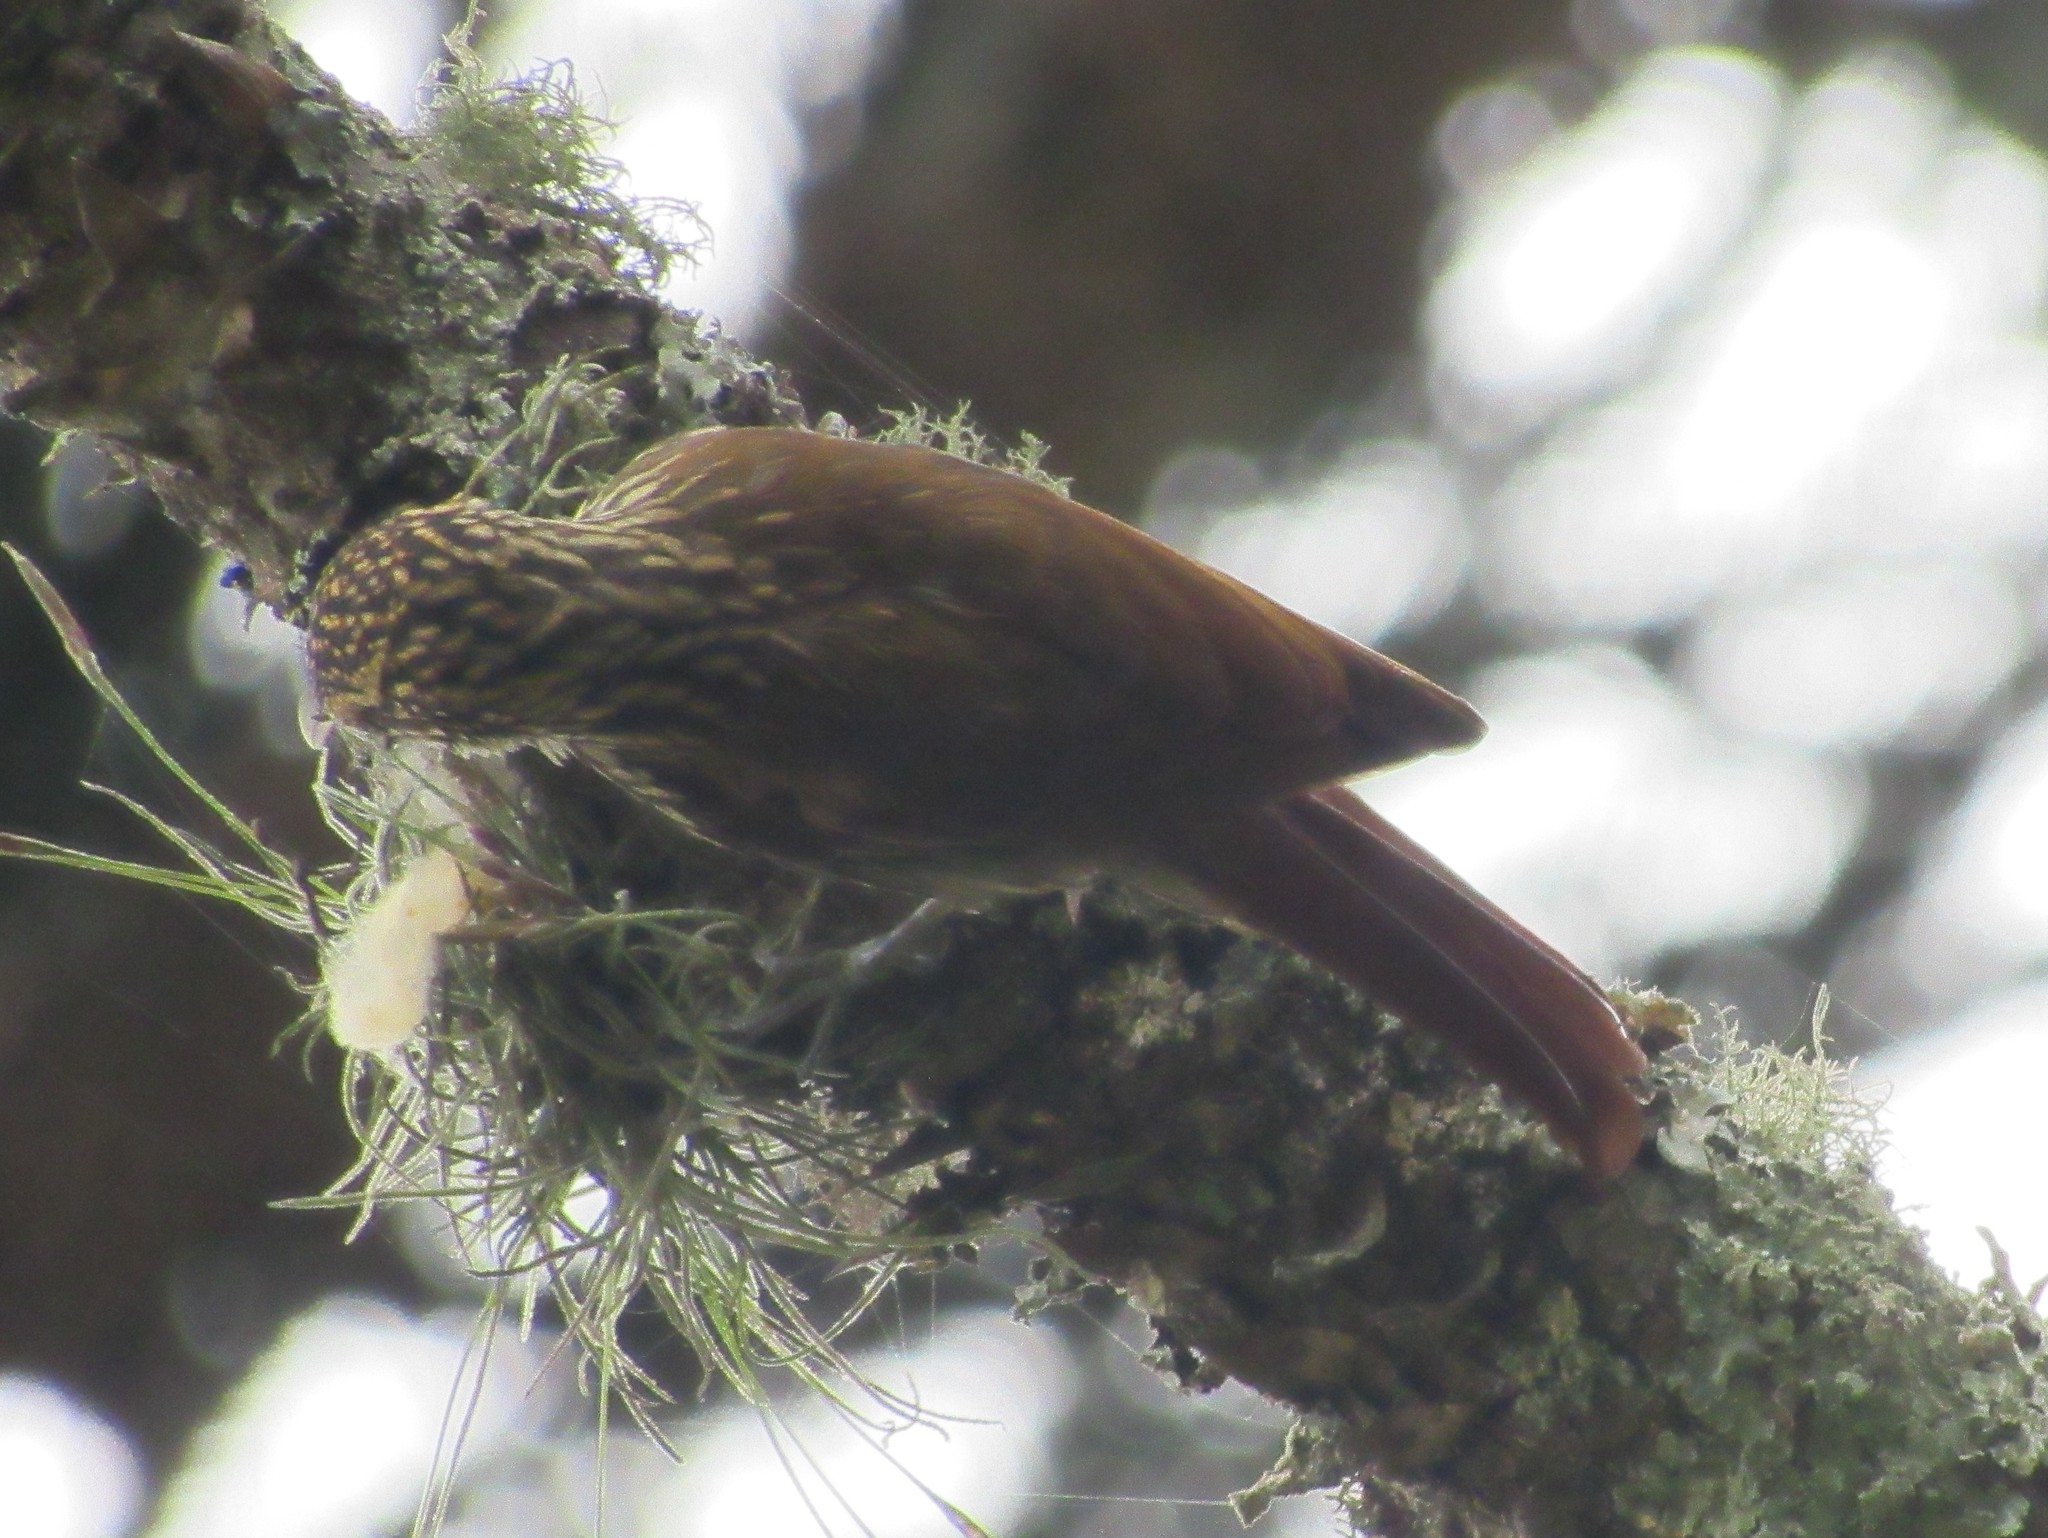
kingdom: Animalia
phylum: Chordata
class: Aves
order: Passeriformes
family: Furnariidae
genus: Lepidocolaptes
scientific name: Lepidocolaptes falcinellus
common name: Scalloped woodcreeper
